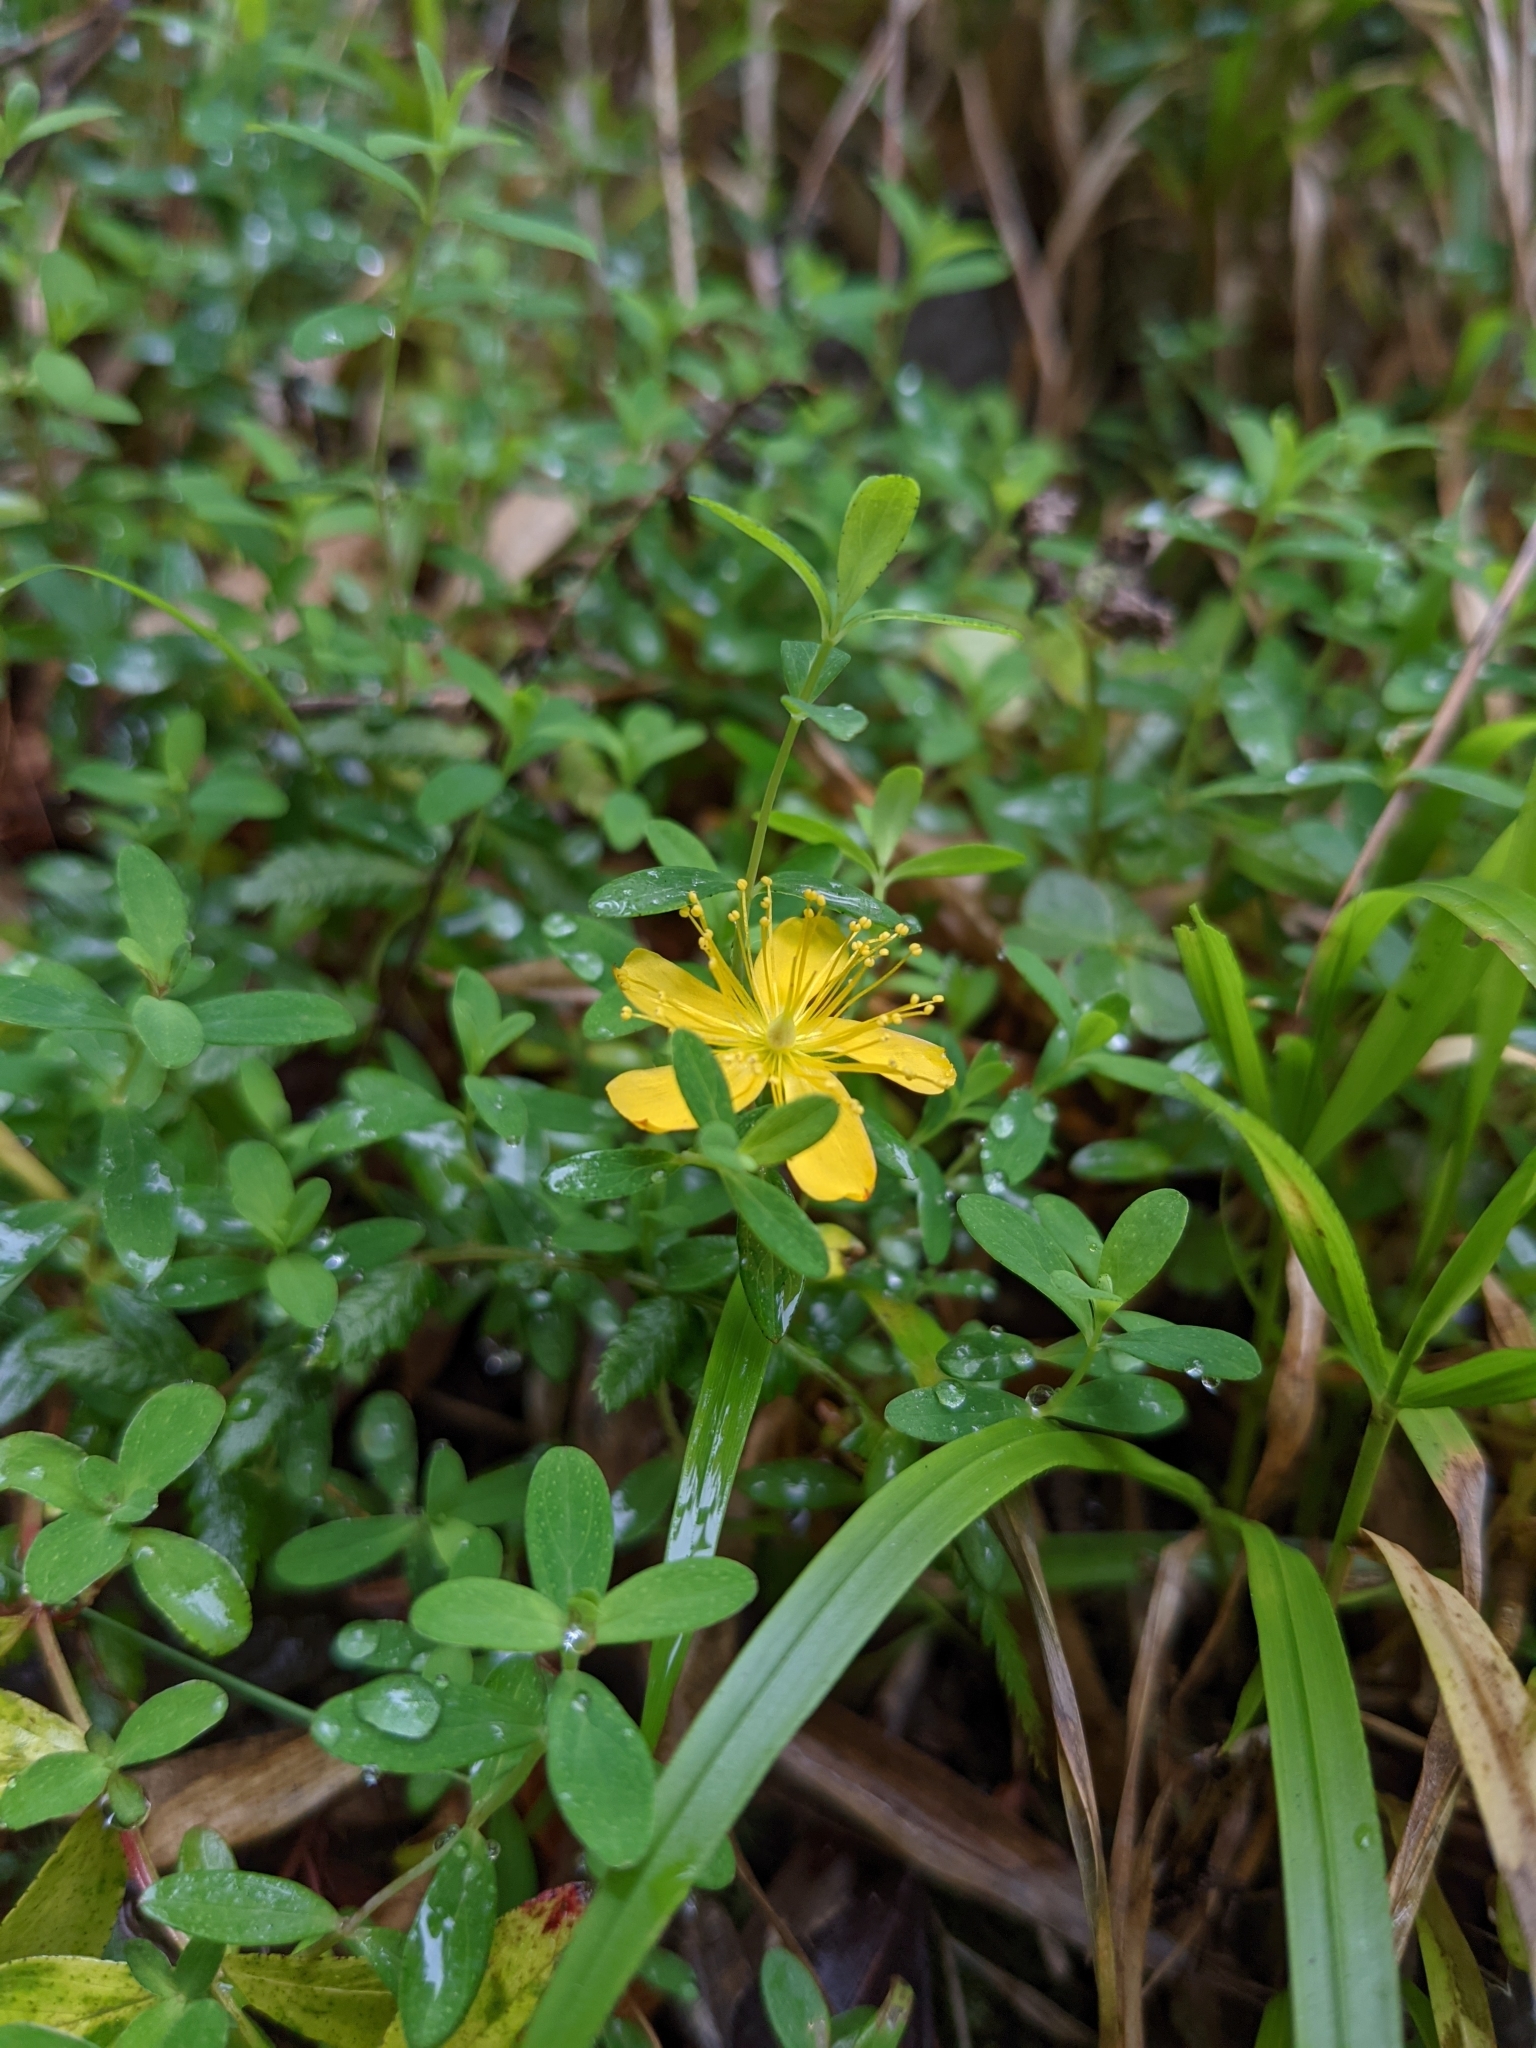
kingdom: Plantae
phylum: Tracheophyta
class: Magnoliopsida
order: Malpighiales
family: Hypericaceae
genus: Hypericum
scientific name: Hypericum nagasawae
